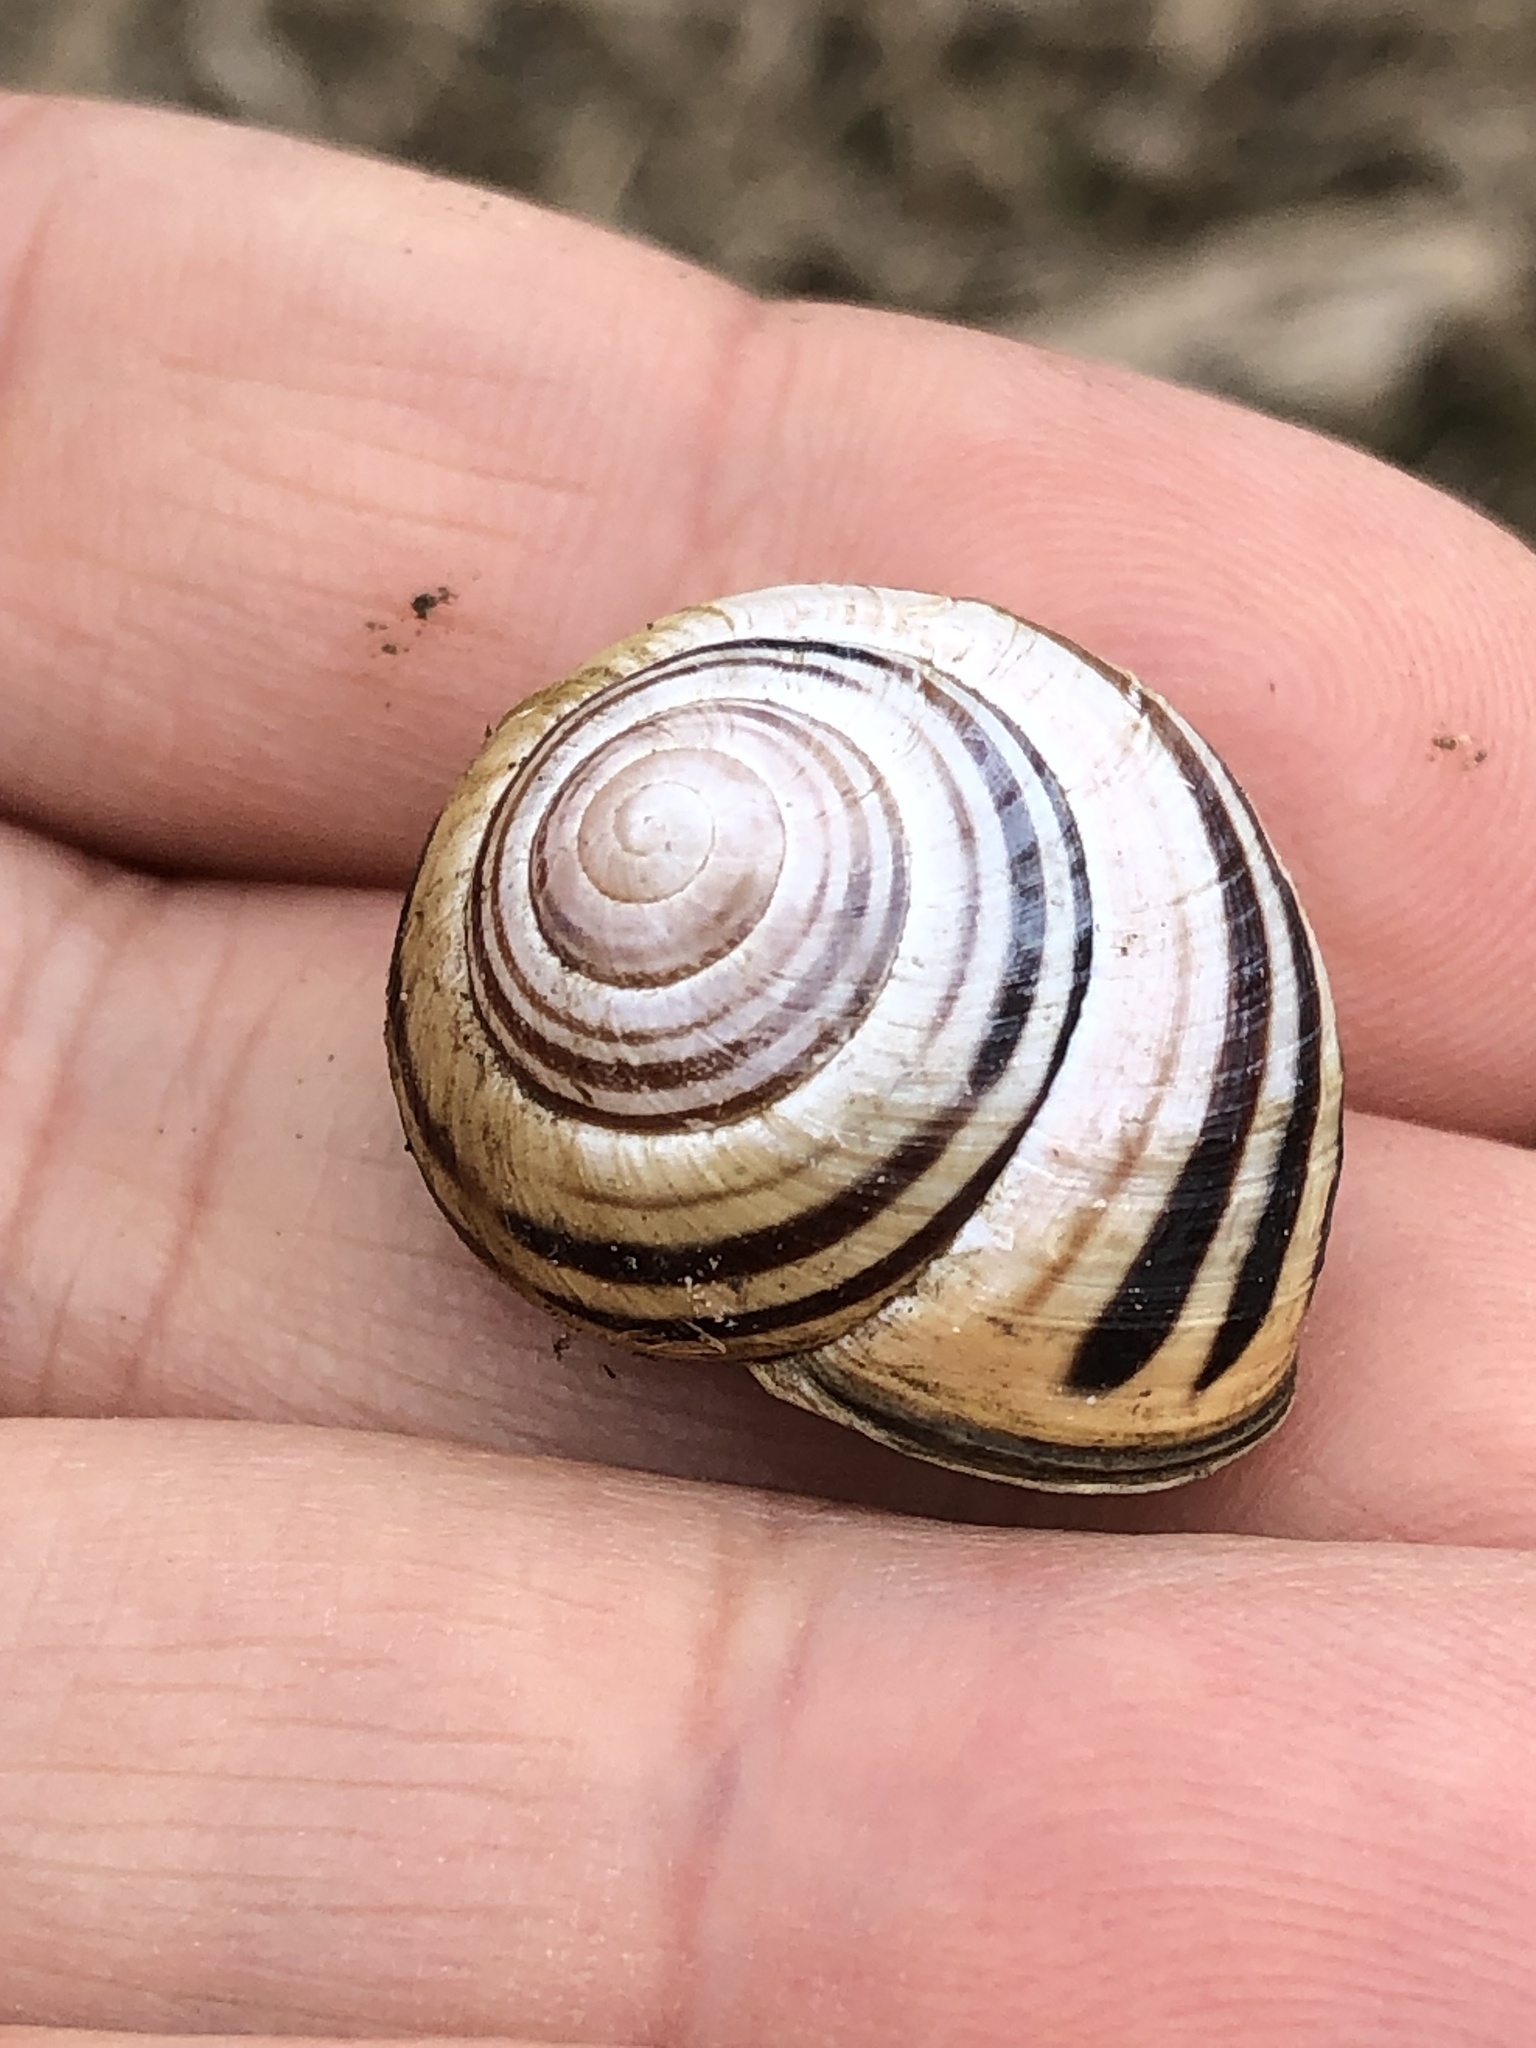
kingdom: Animalia
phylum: Mollusca
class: Gastropoda
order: Stylommatophora
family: Helicidae
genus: Cepaea
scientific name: Cepaea nemoralis
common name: Grovesnail
